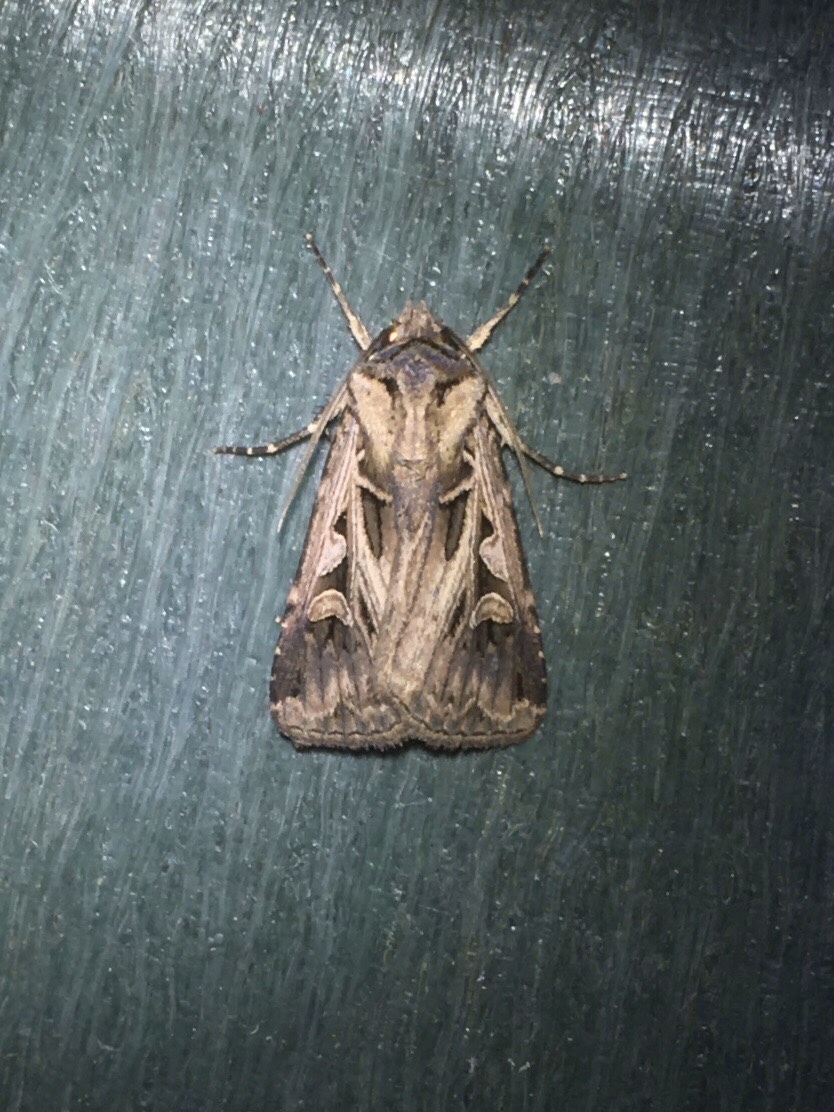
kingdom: Animalia
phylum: Arthropoda
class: Insecta
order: Lepidoptera
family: Noctuidae
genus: Feltia
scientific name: Feltia
